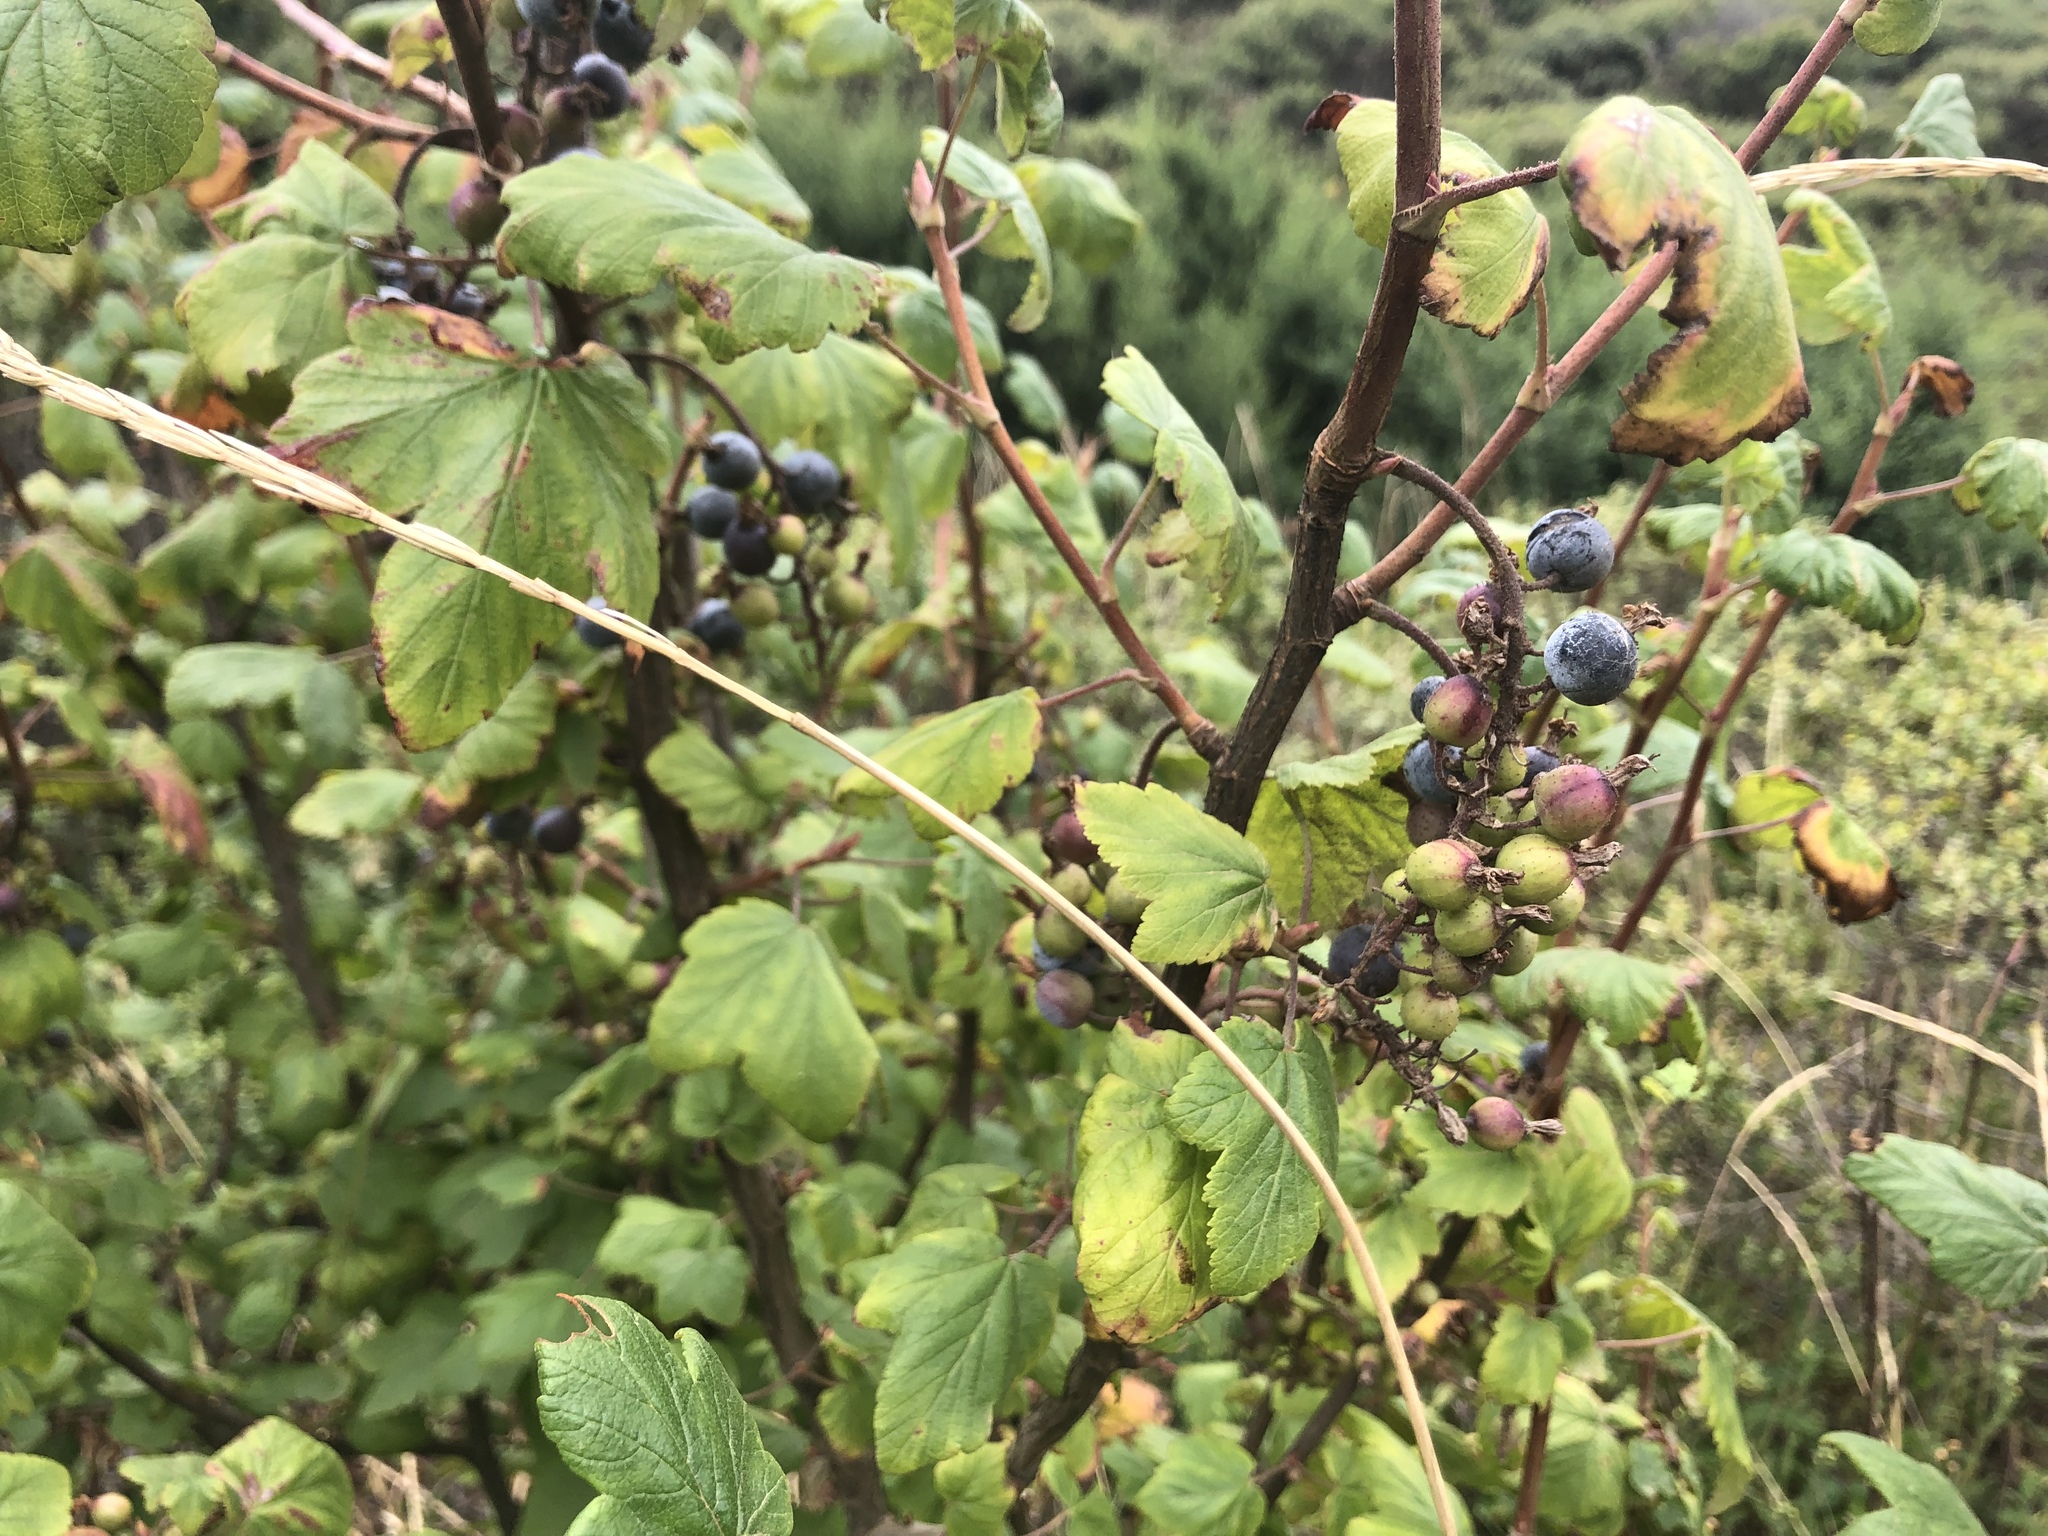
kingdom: Plantae
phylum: Tracheophyta
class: Magnoliopsida
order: Saxifragales
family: Grossulariaceae
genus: Ribes
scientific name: Ribes sanguineum
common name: Flowering currant
